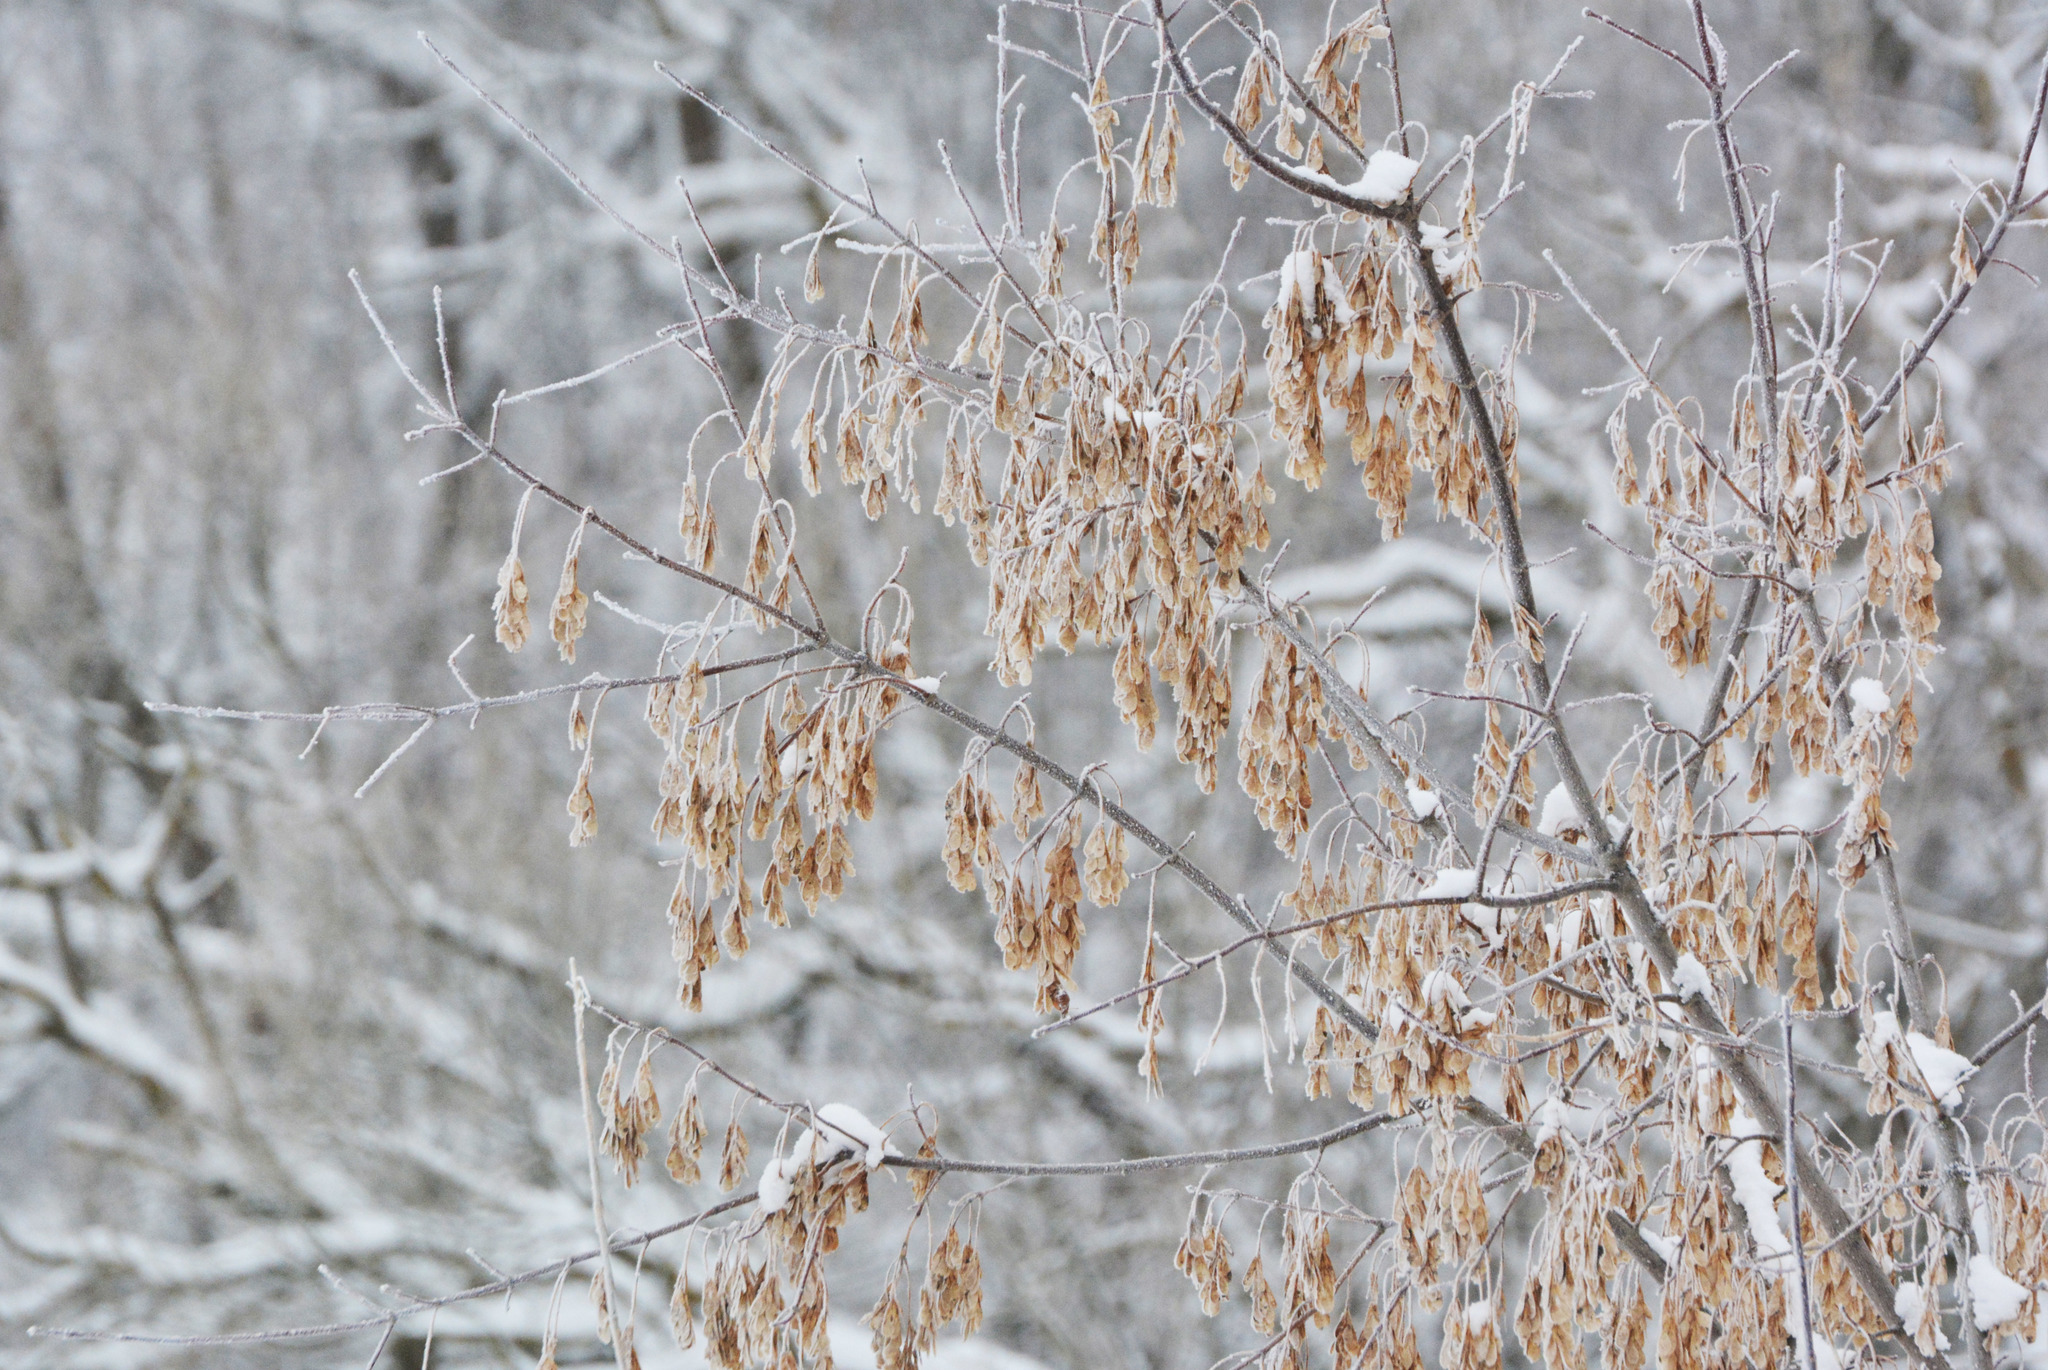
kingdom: Plantae
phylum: Tracheophyta
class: Magnoliopsida
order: Sapindales
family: Sapindaceae
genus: Acer
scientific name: Acer negundo
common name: Ashleaf maple
